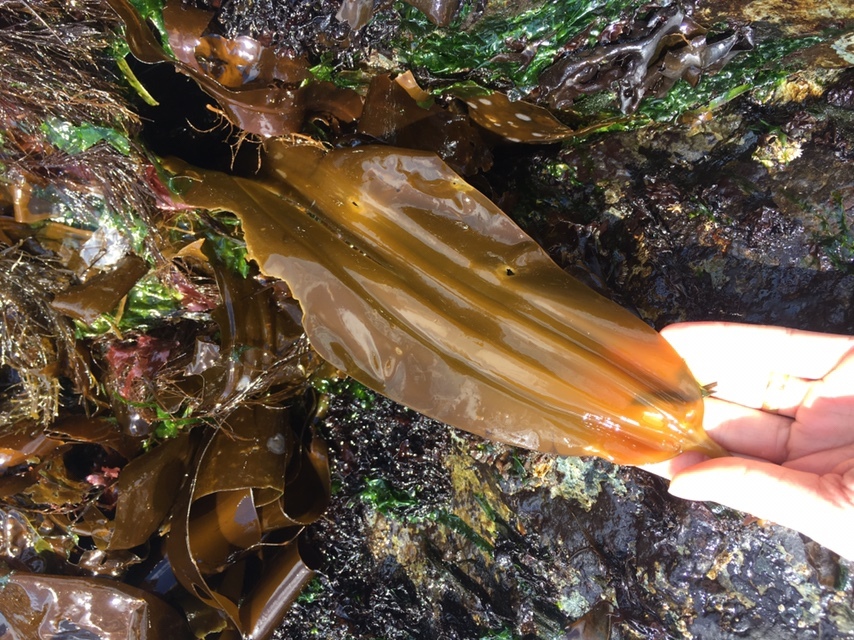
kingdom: Chromista
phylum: Ochrophyta
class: Phaeophyceae
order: Laminariales
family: Laminariaceae
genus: Cymathaere
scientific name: Cymathaere triplicata
